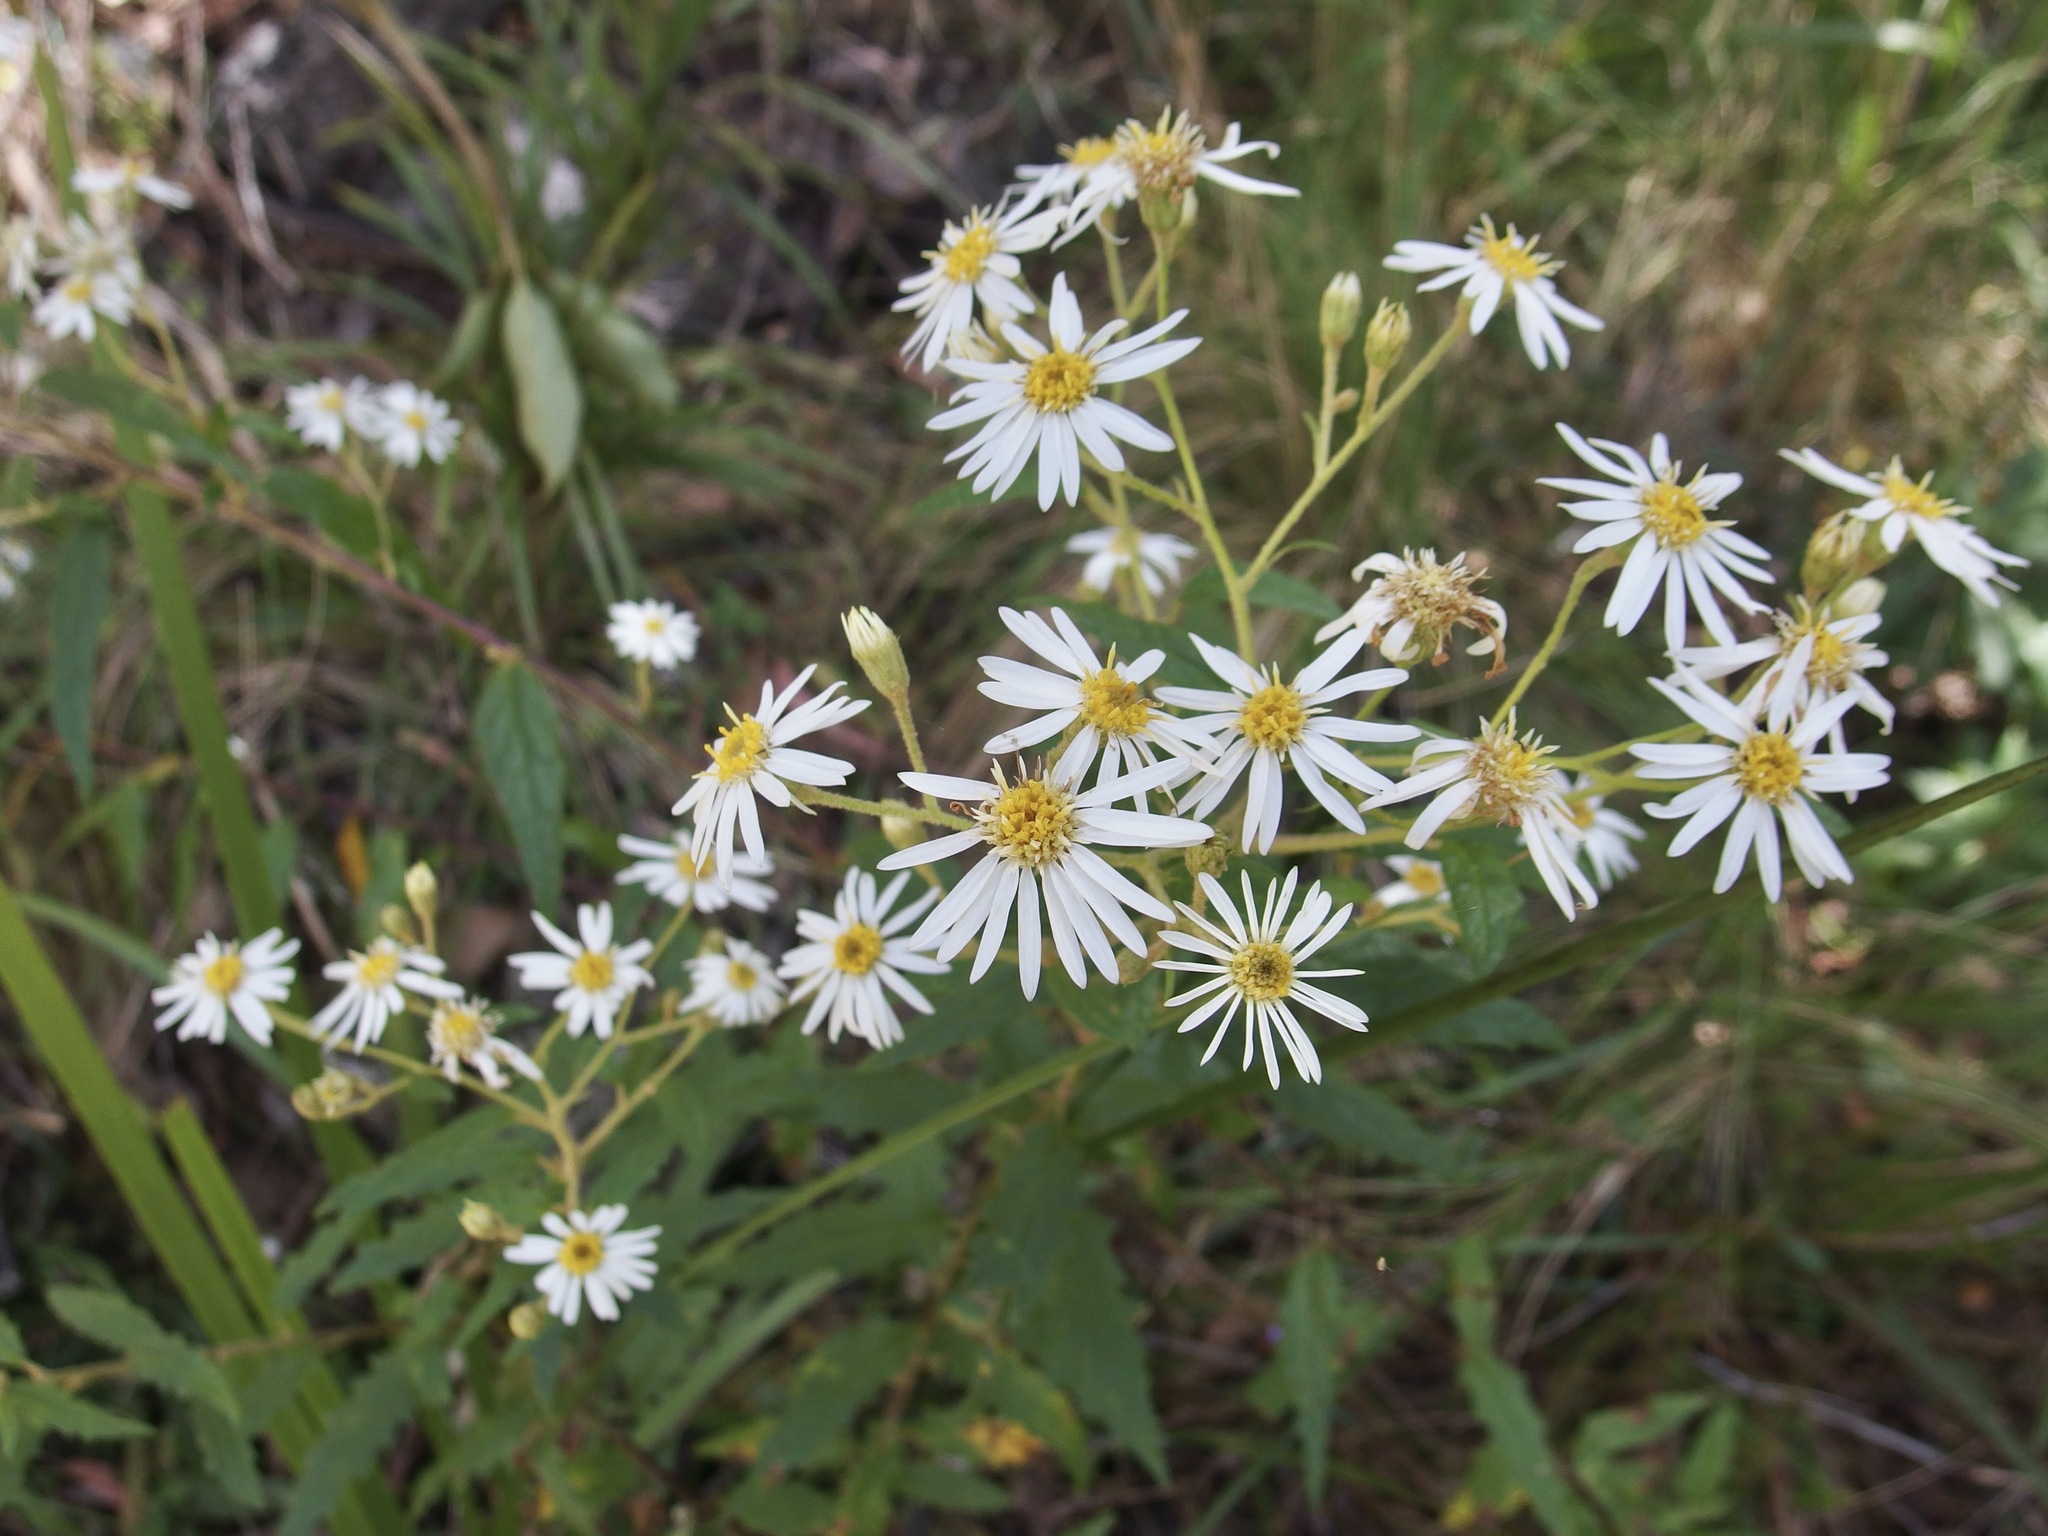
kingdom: Plantae
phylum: Tracheophyta
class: Magnoliopsida
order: Asterales
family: Asteraceae
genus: Olearia
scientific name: Olearia nernstii
